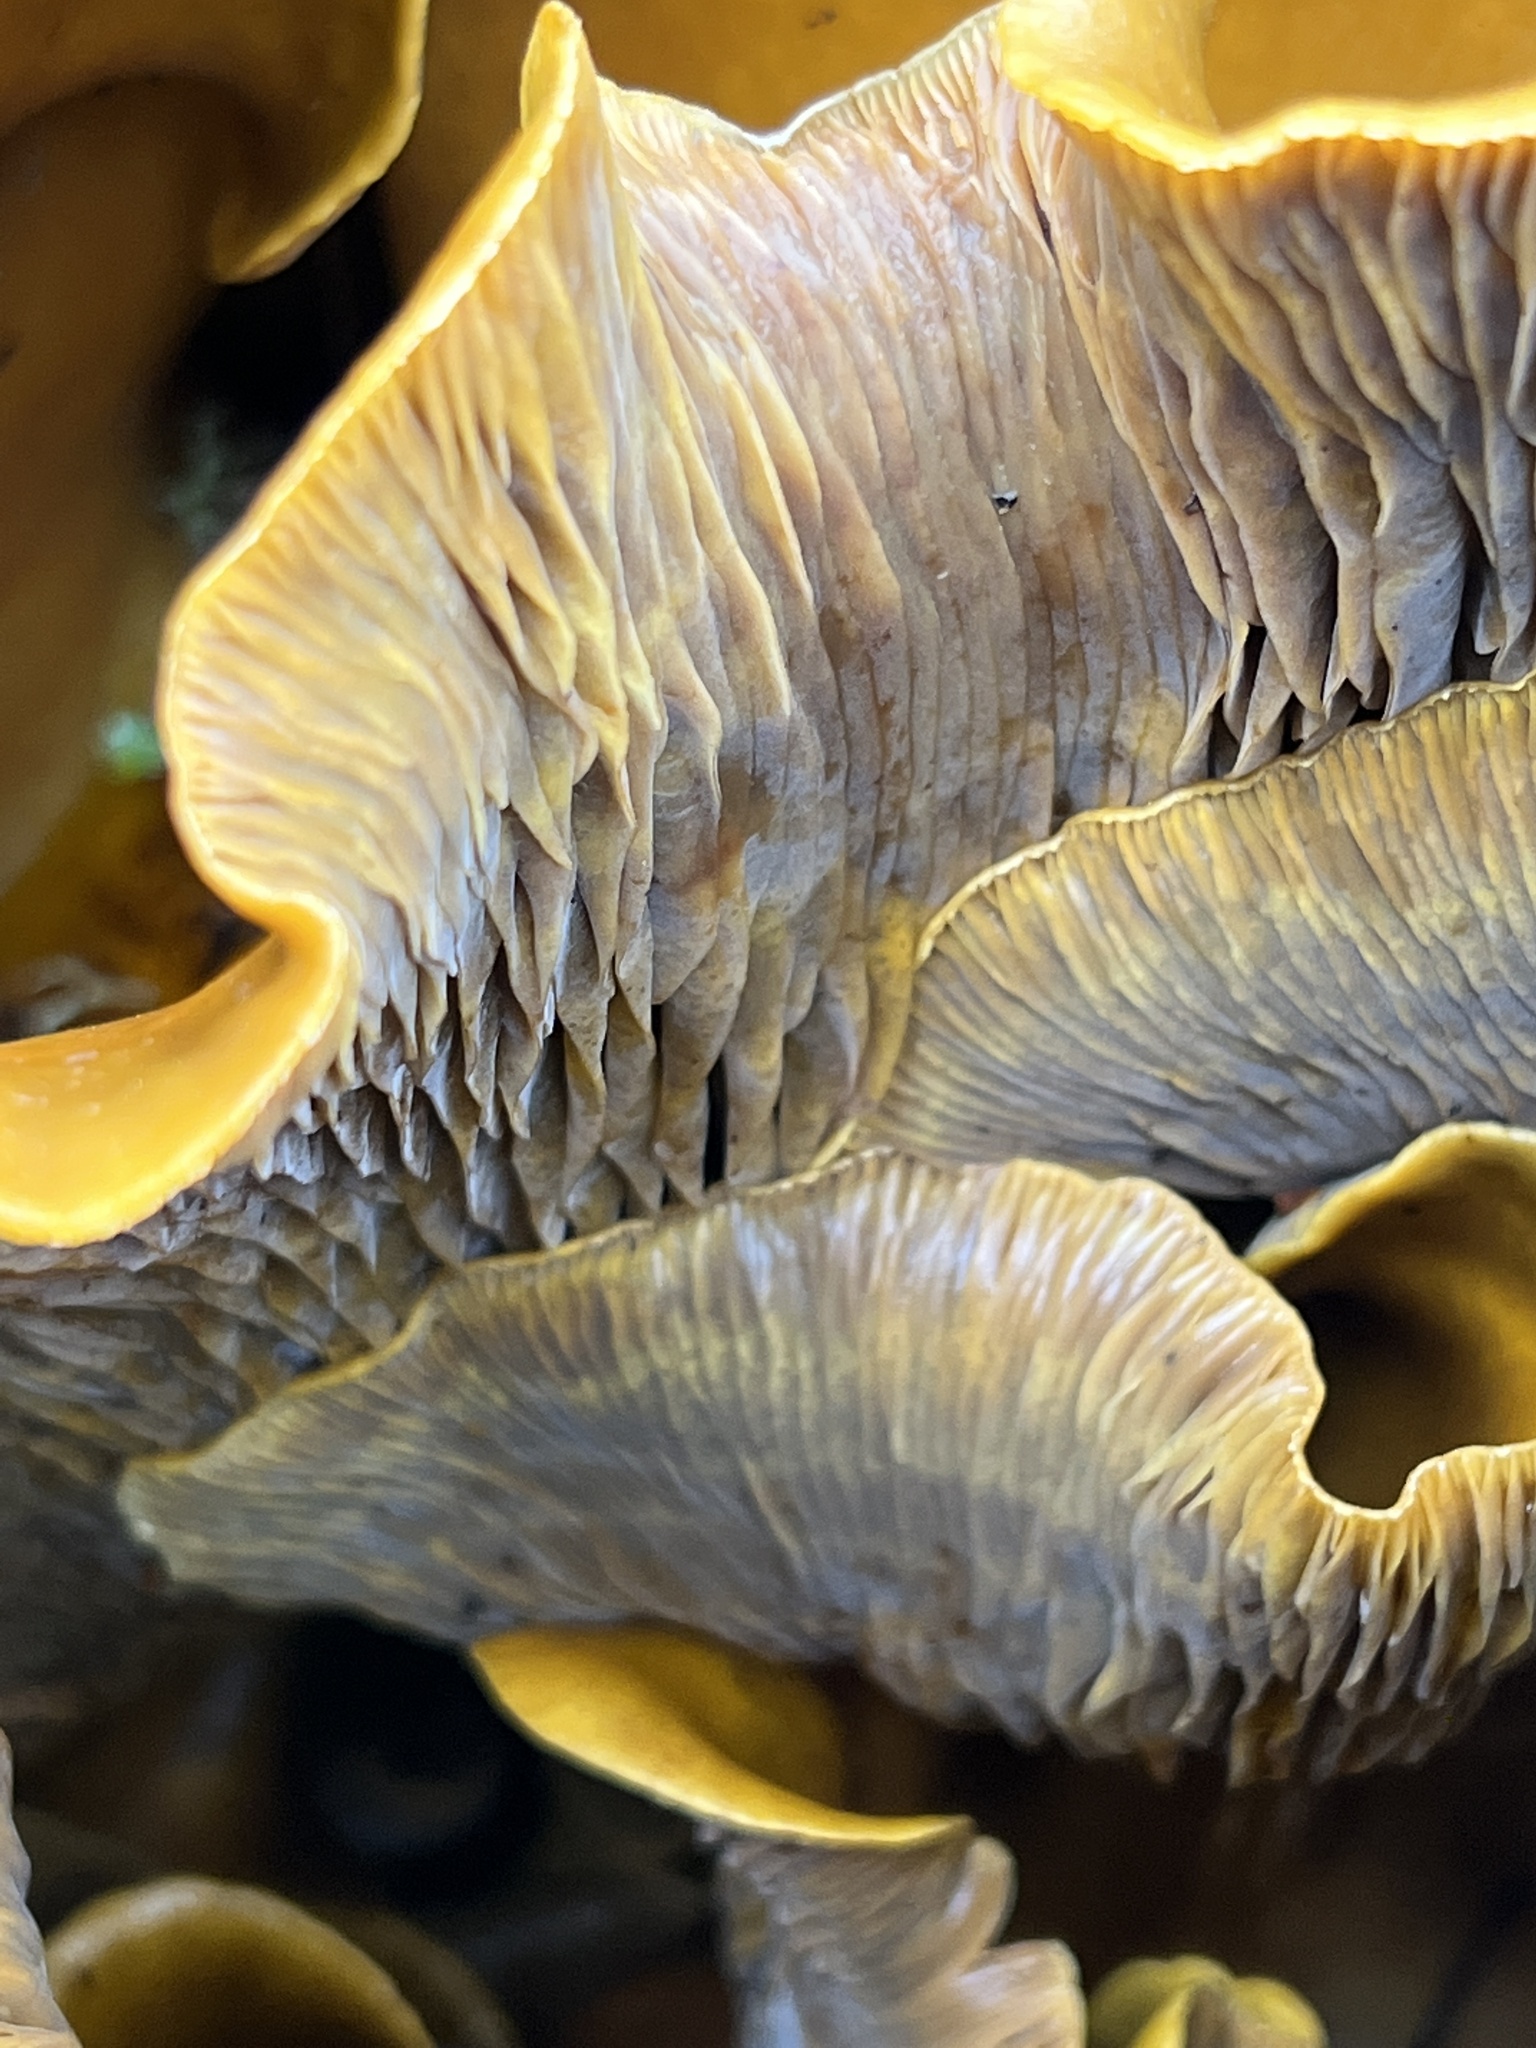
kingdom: Fungi
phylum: Basidiomycota
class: Agaricomycetes
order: Agaricales
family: Omphalotaceae
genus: Omphalotus
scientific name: Omphalotus olivascens
